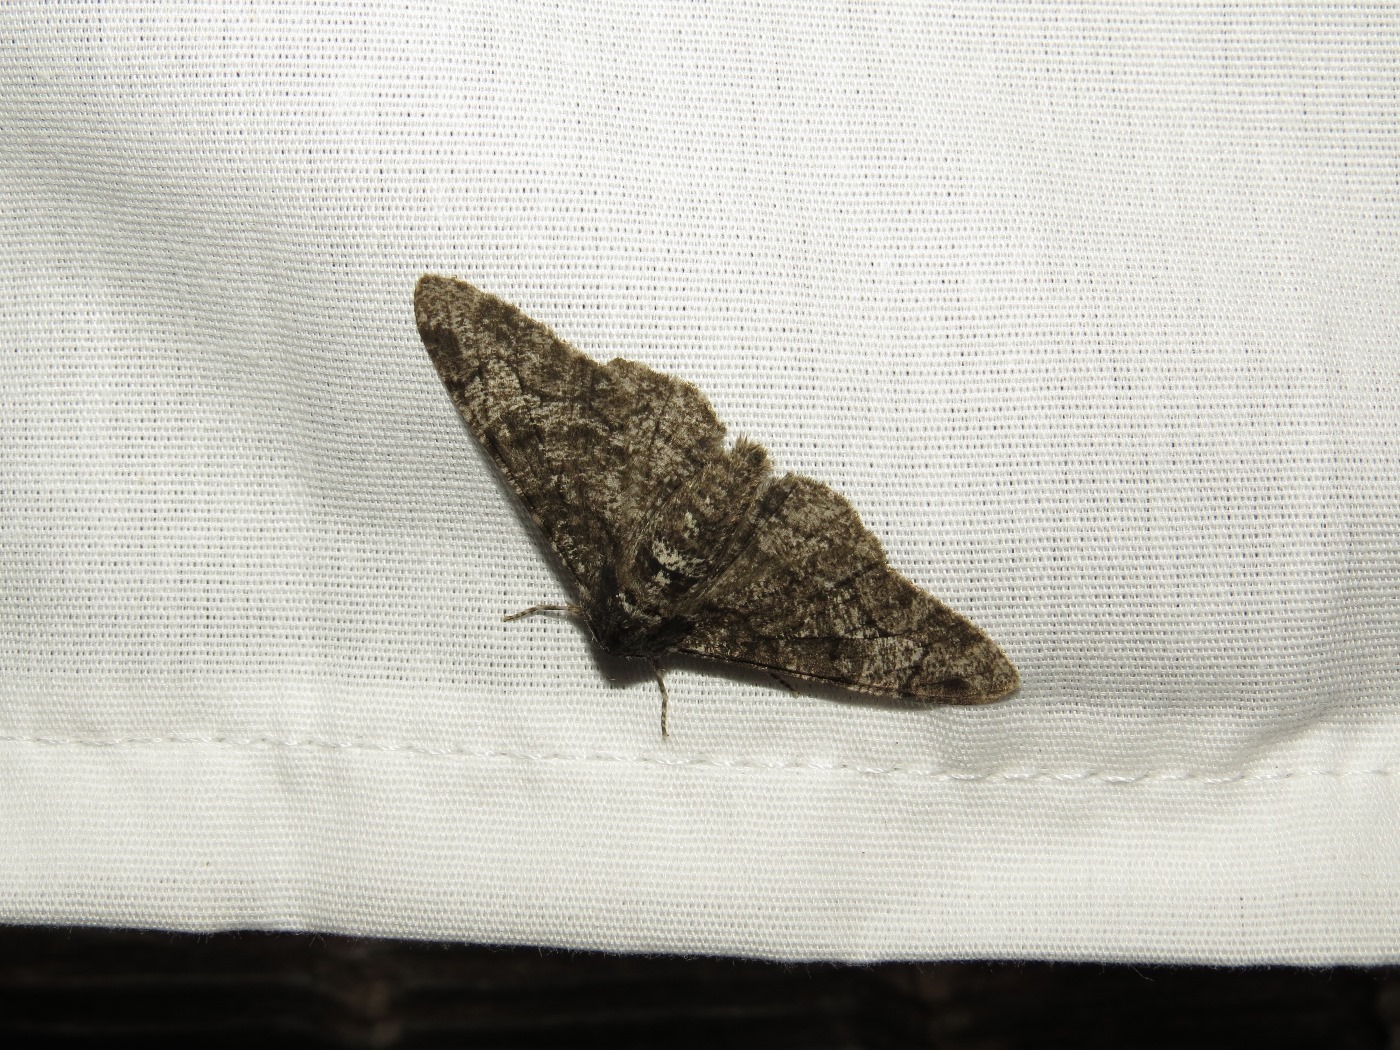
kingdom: Animalia
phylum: Arthropoda
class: Insecta
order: Lepidoptera
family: Geometridae
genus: Biston
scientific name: Biston betularia
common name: Peppered moth
